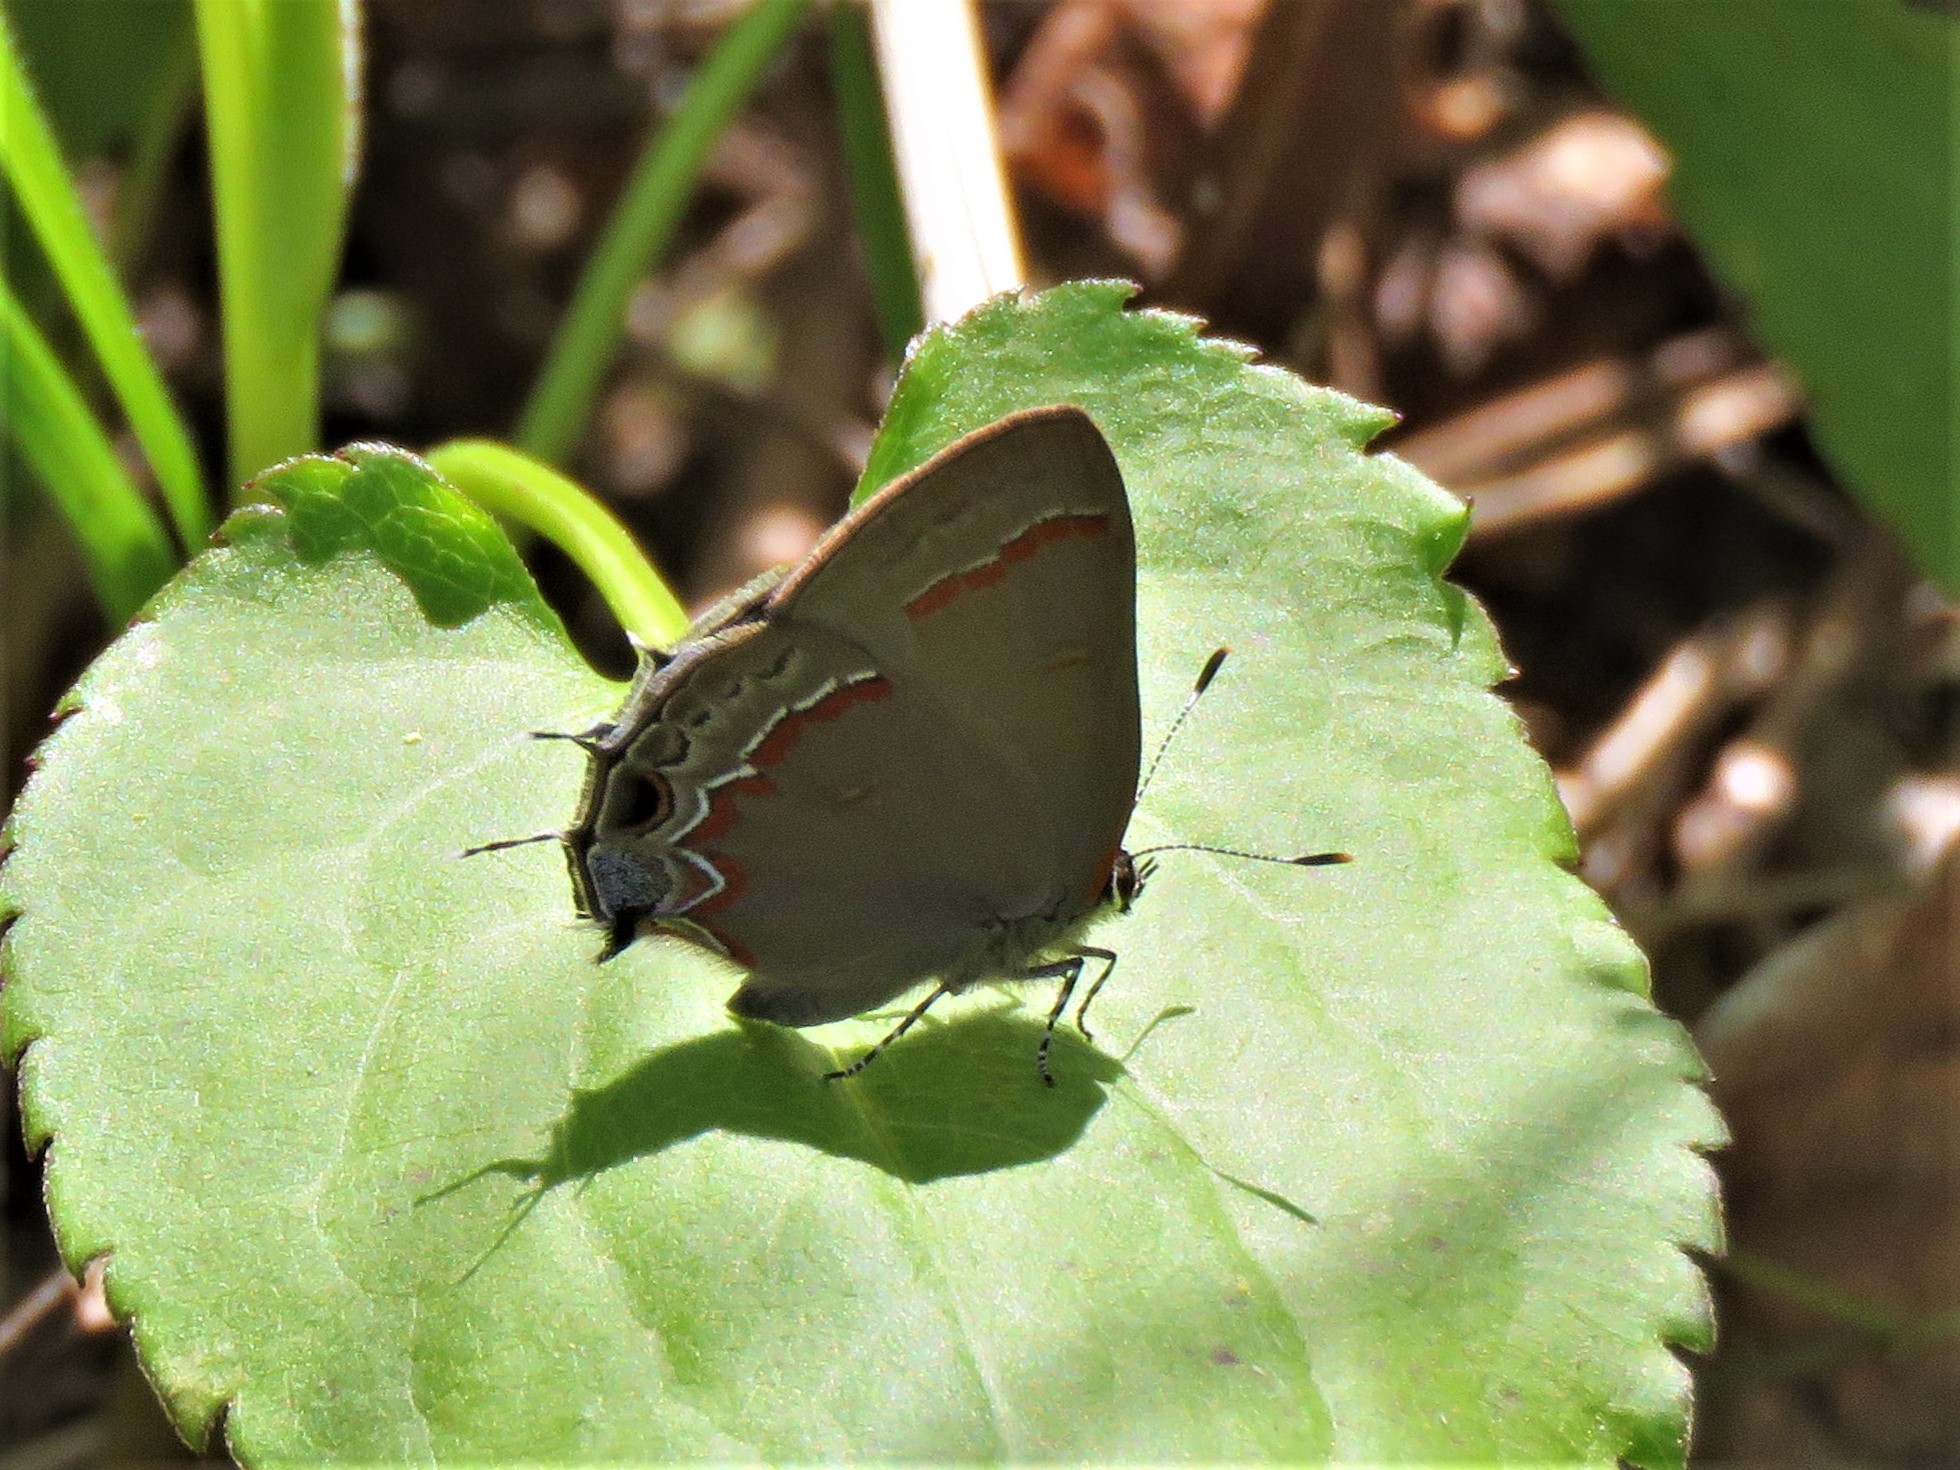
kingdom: Animalia
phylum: Arthropoda
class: Insecta
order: Lepidoptera
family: Lycaenidae
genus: Calycopis
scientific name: Calycopis cecrops
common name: Red-banded hairstreak
